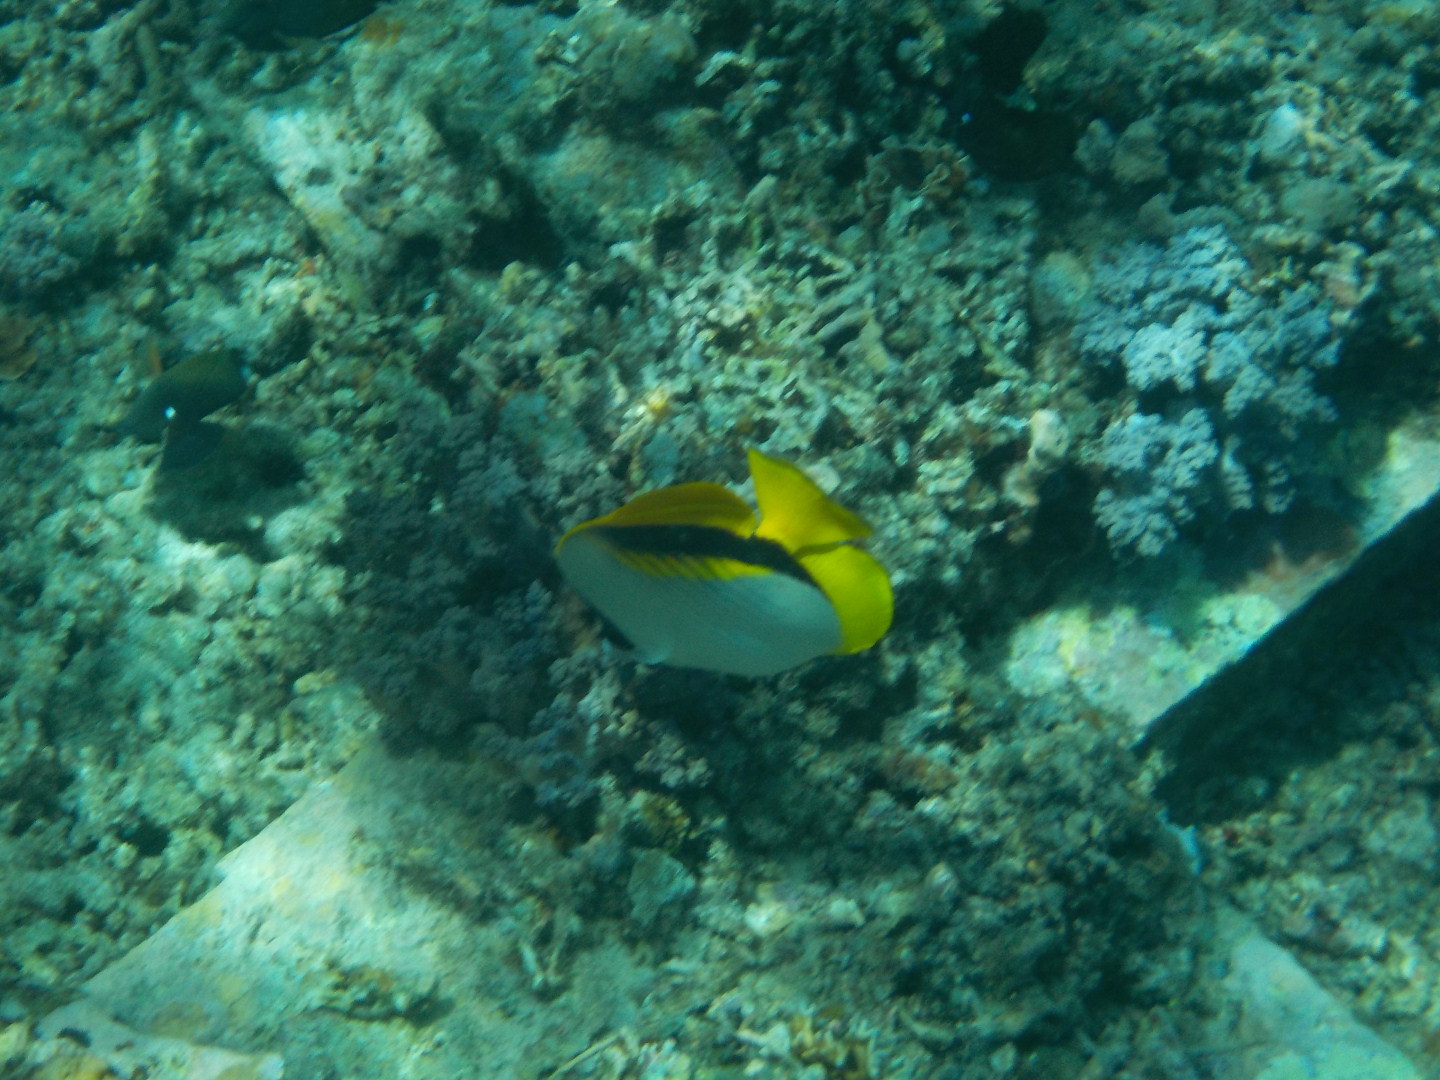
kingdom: Animalia
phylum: Chordata
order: Perciformes
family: Chaetodontidae
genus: Chaetodon
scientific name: Chaetodon lineolatus
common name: Lined butterflyfish
